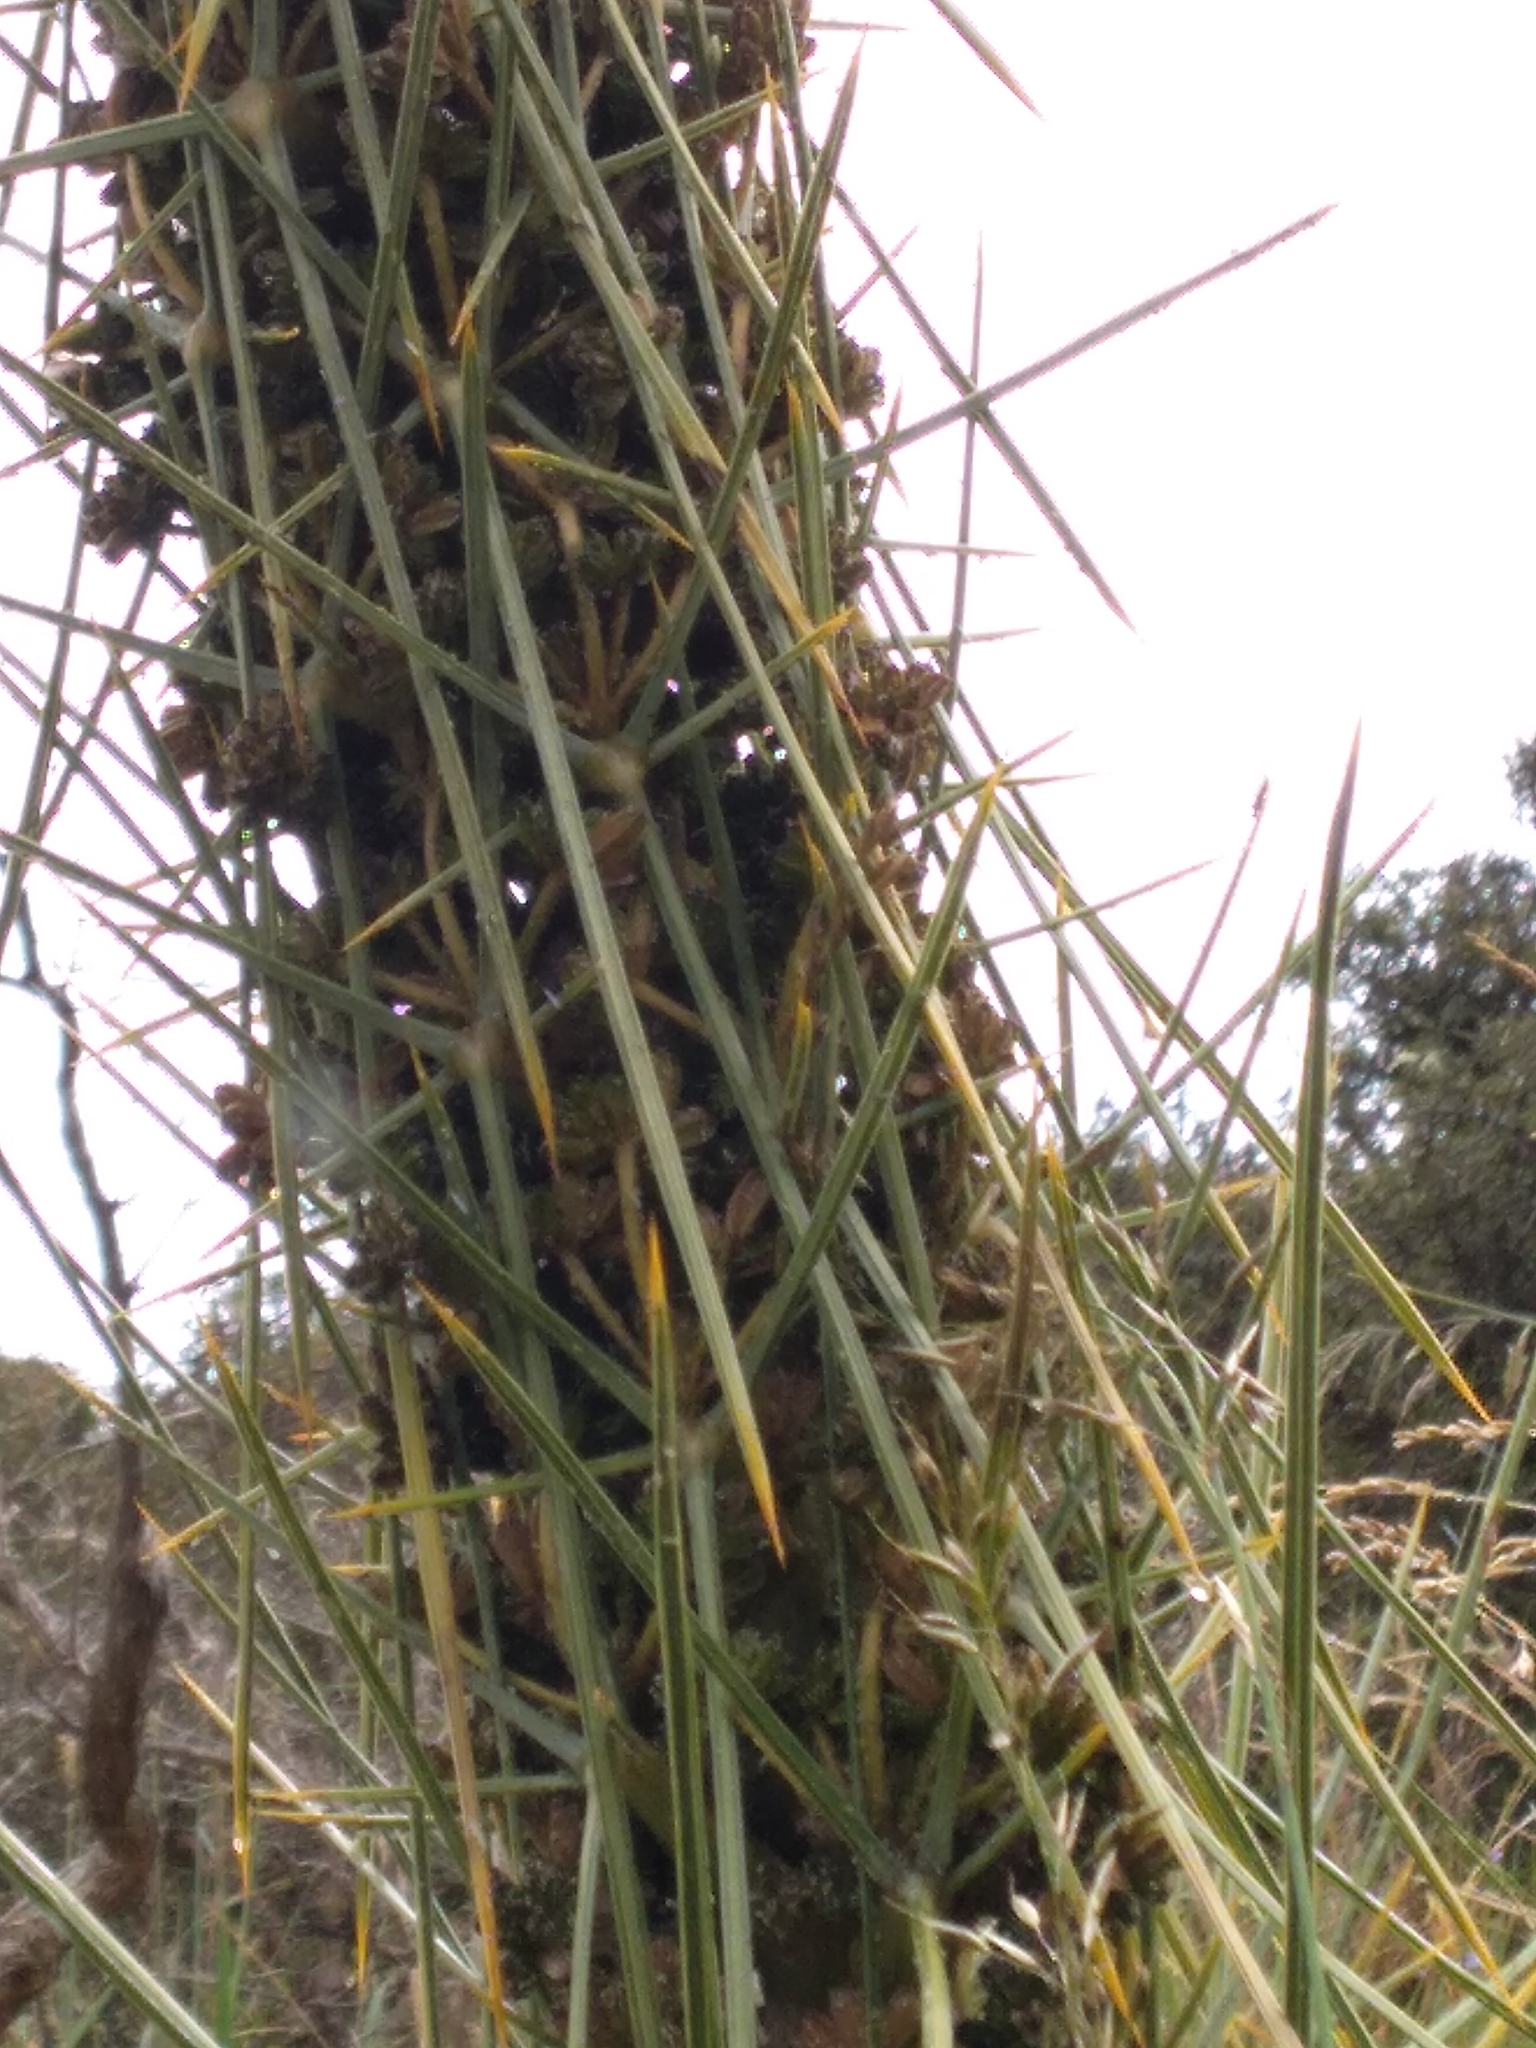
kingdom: Plantae
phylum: Tracheophyta
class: Magnoliopsida
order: Apiales
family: Apiaceae
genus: Aciphylla
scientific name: Aciphylla squarrosa
